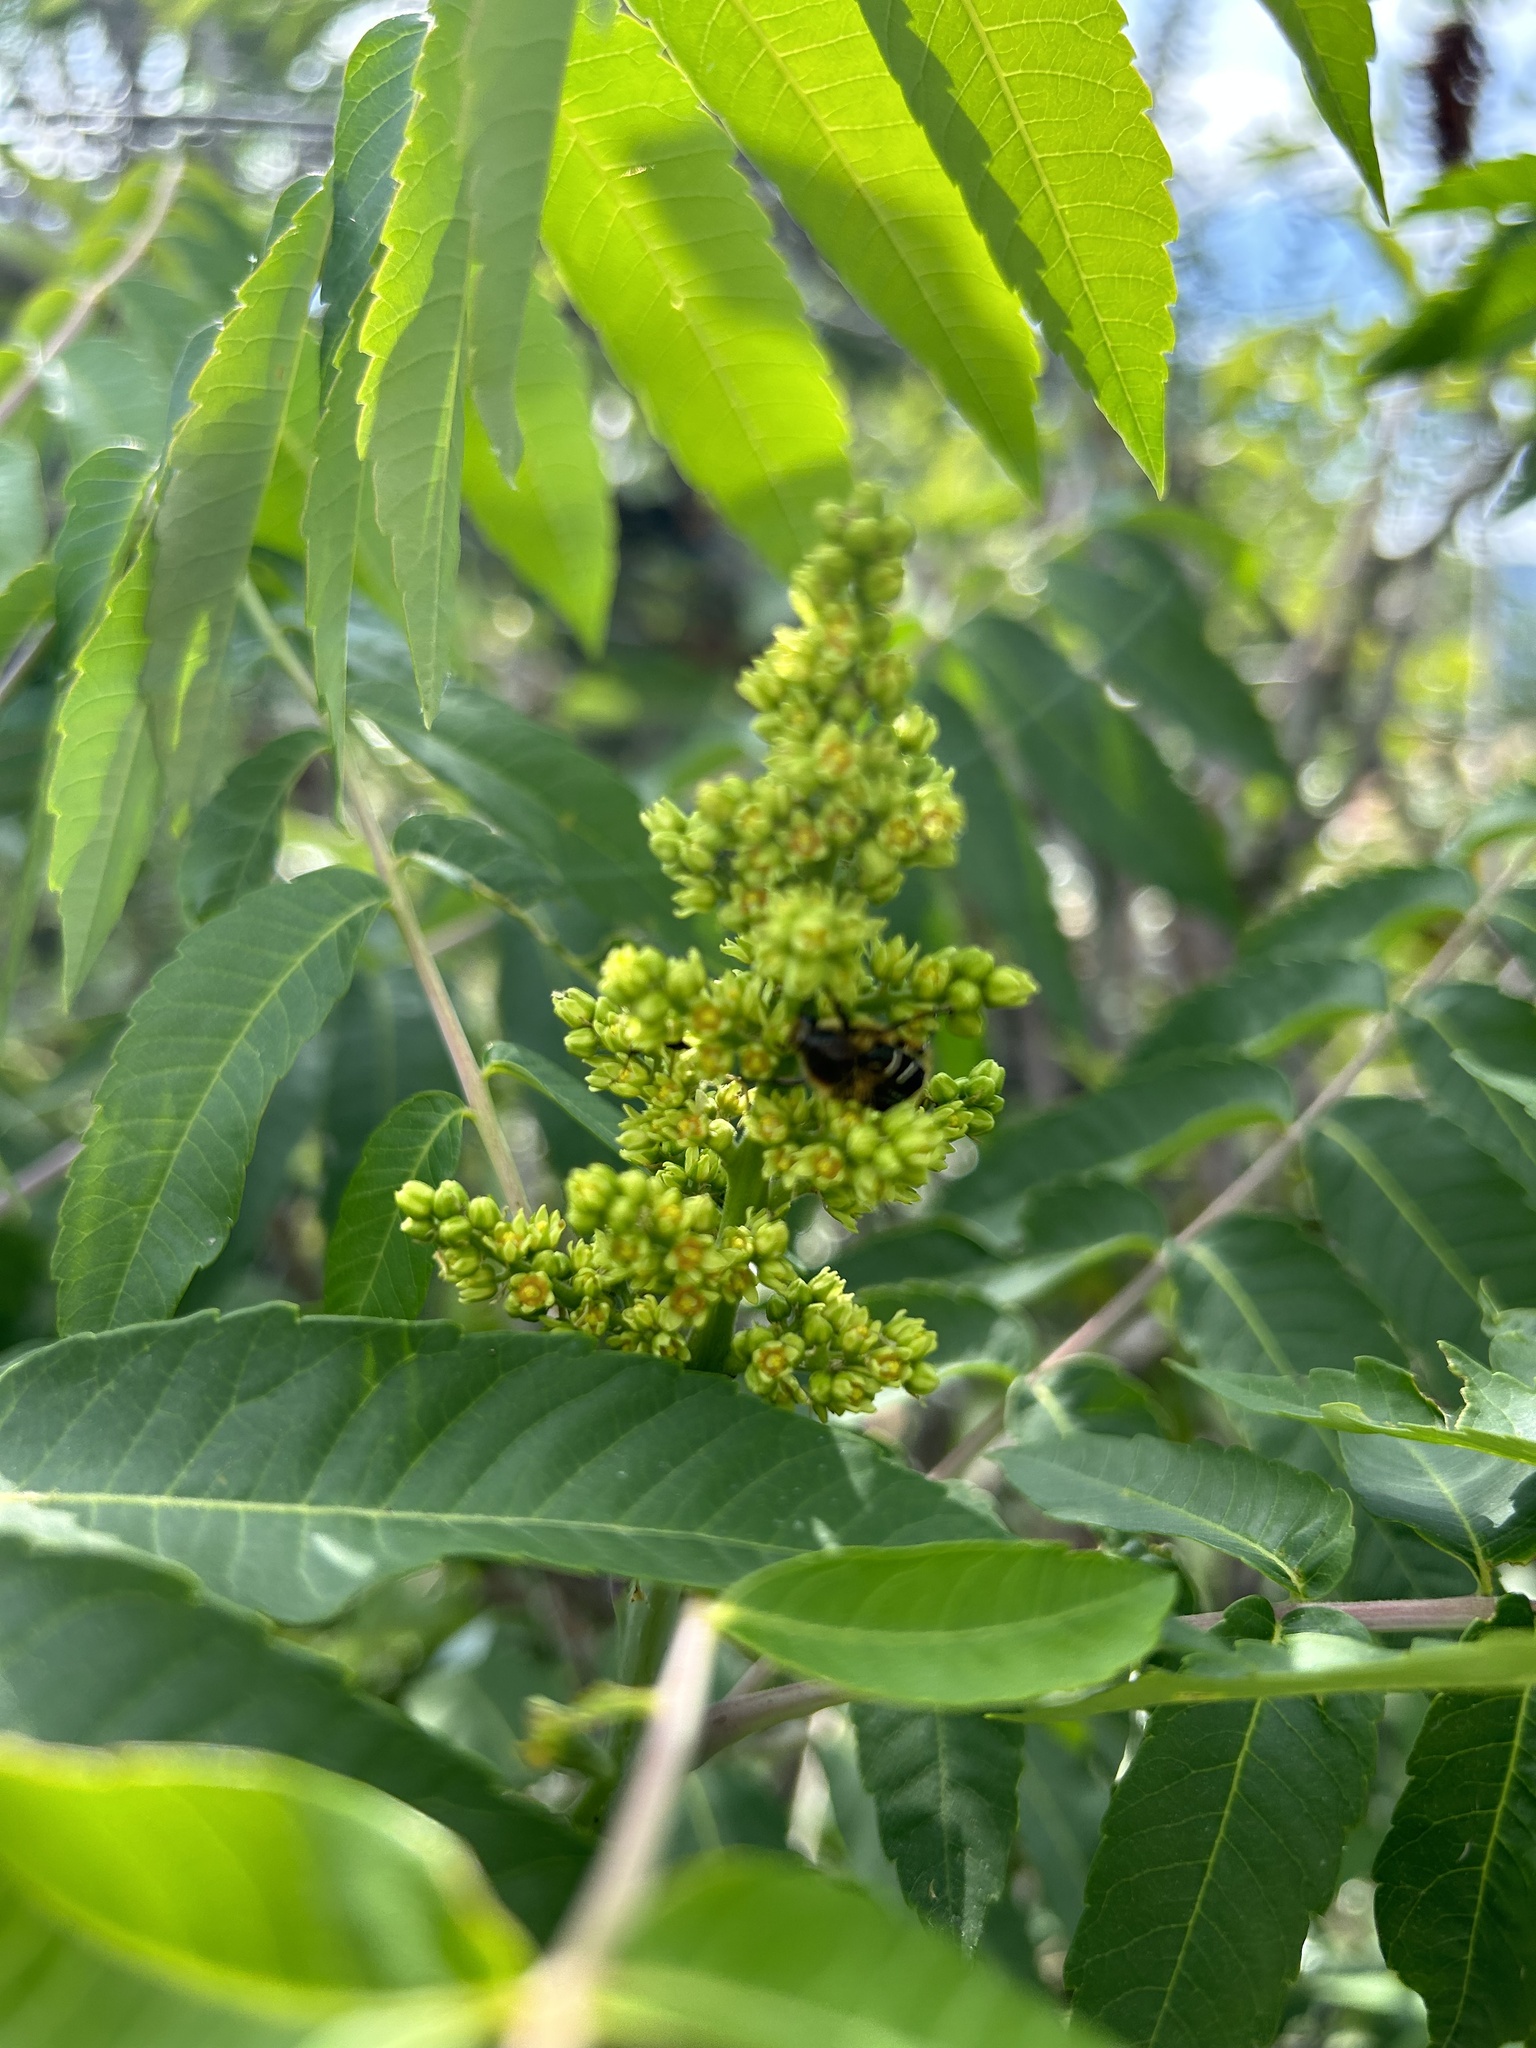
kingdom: Plantae
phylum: Tracheophyta
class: Magnoliopsida
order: Sapindales
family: Anacardiaceae
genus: Rhus
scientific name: Rhus glabra
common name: Scarlet sumac
